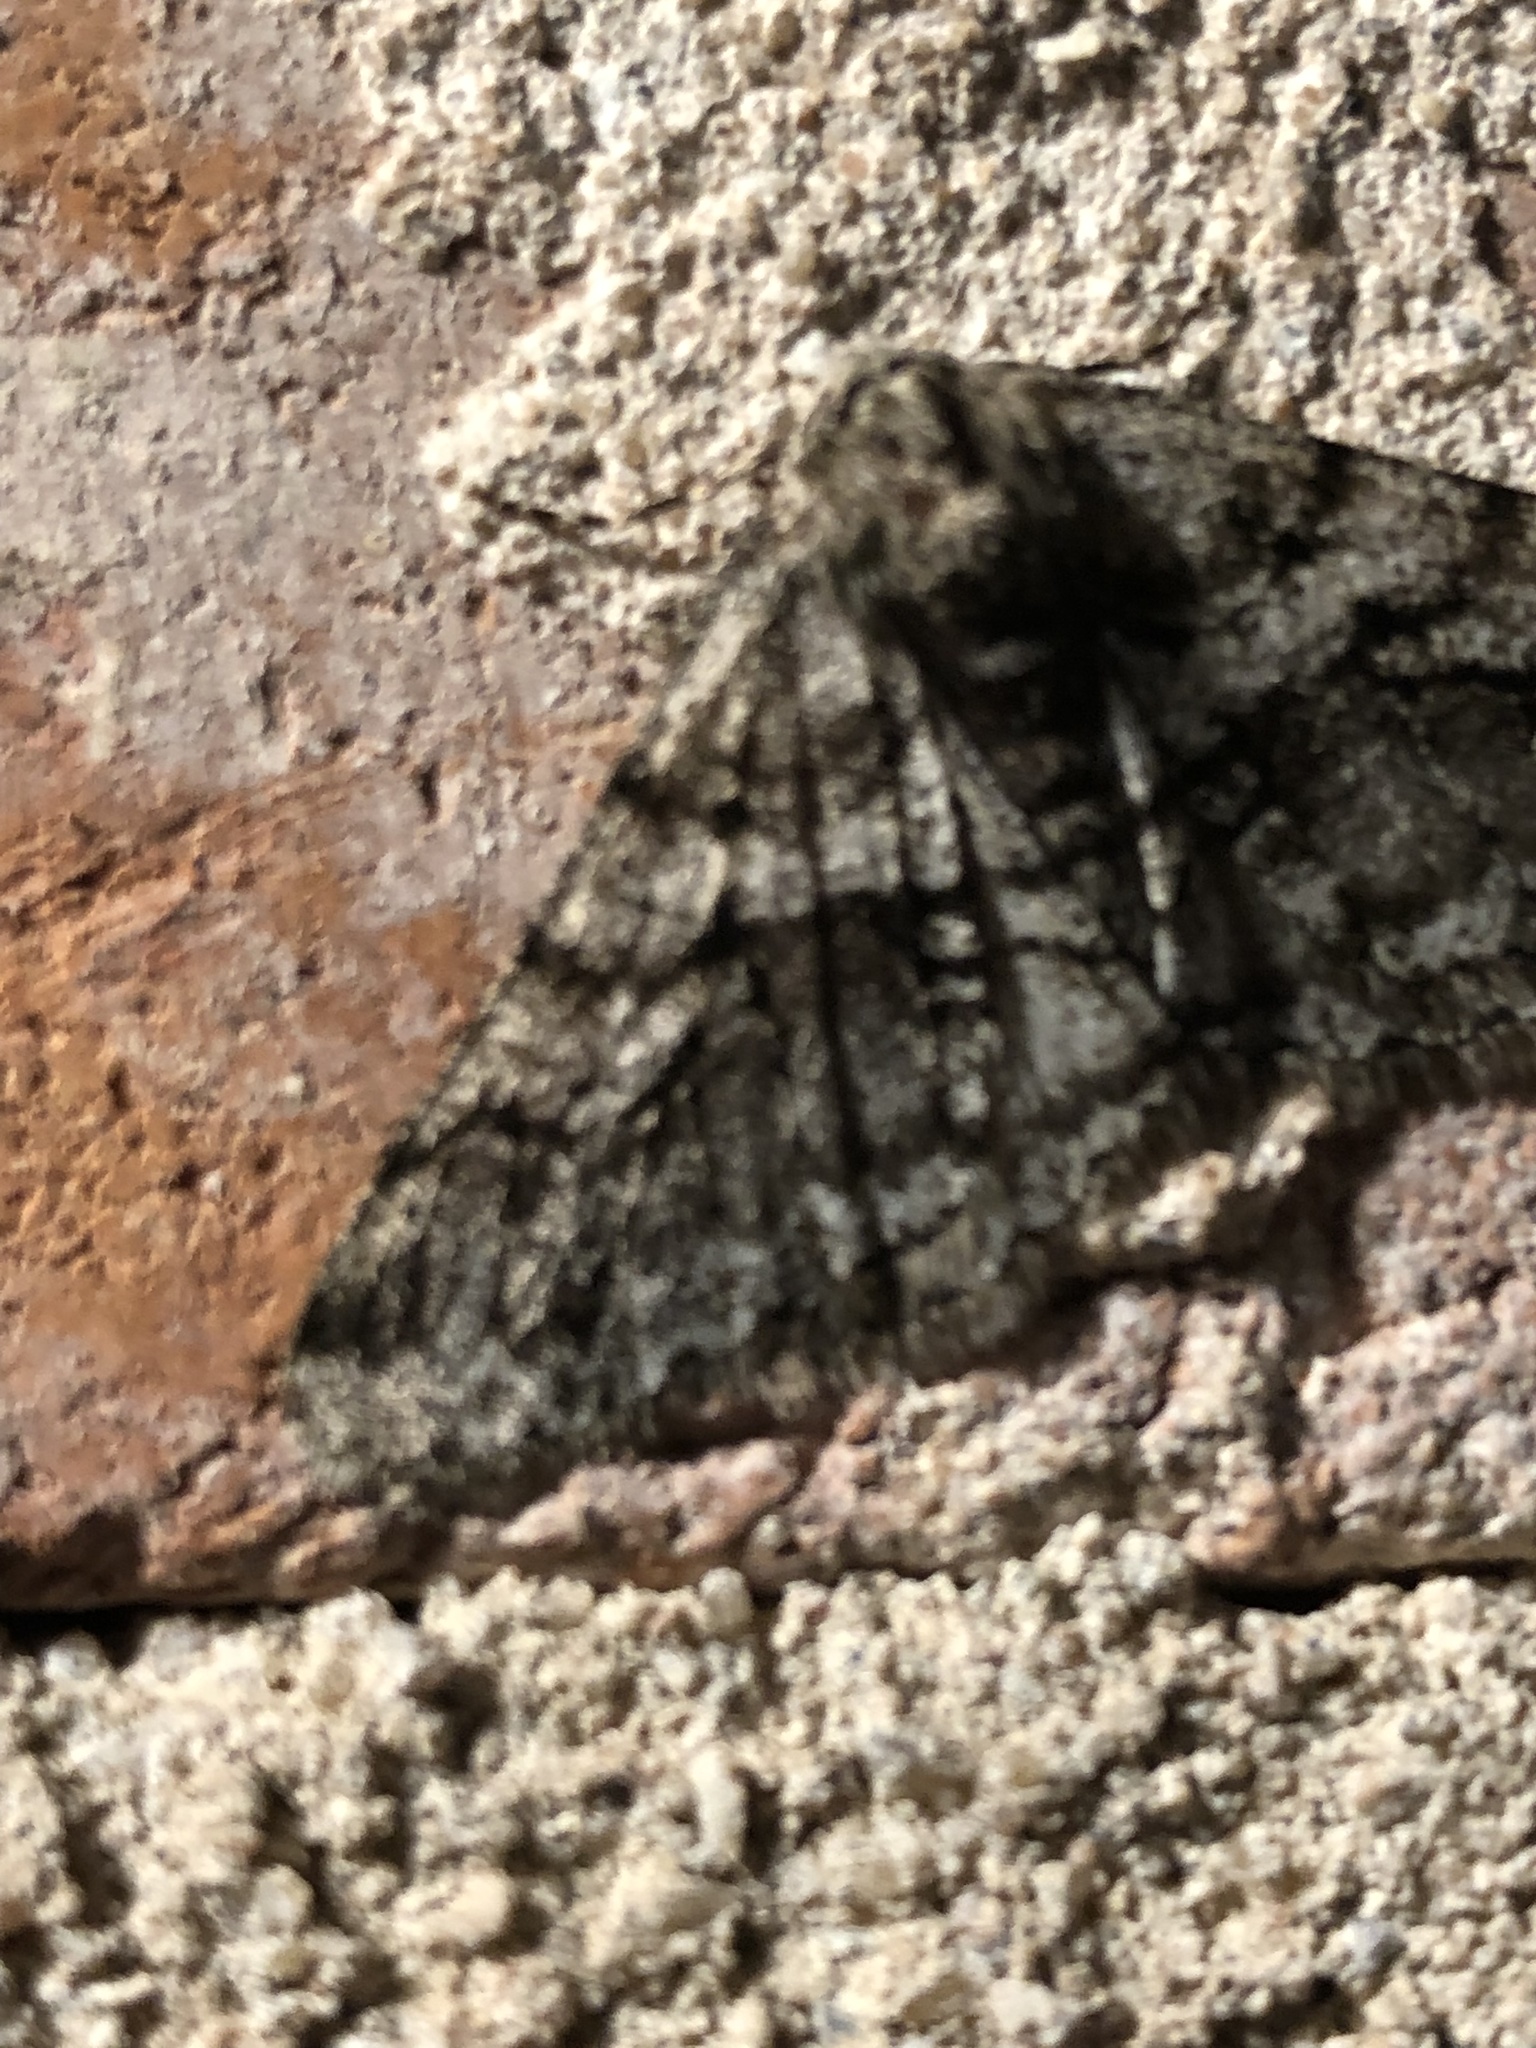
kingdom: Animalia
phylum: Arthropoda
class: Insecta
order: Lepidoptera
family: Geometridae
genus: Phigalia
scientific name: Phigalia titea
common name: Spiny looper
